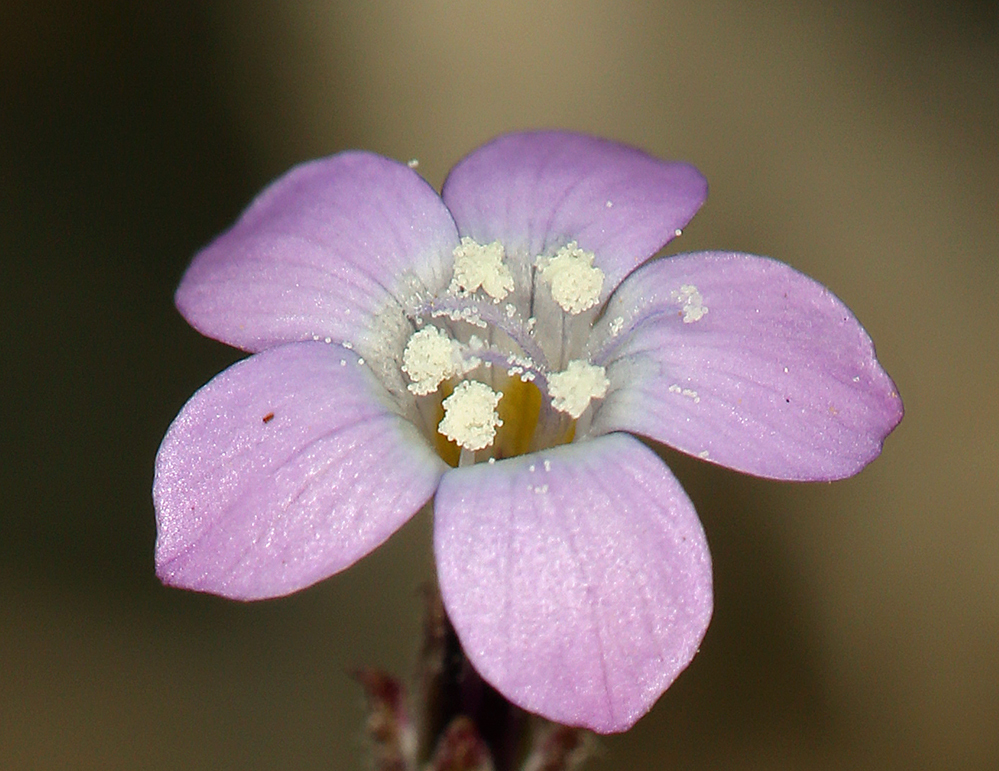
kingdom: Plantae
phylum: Tracheophyta
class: Magnoliopsida
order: Ericales
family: Polemoniaceae
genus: Gilia
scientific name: Gilia sinuata
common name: Rosy gilia
